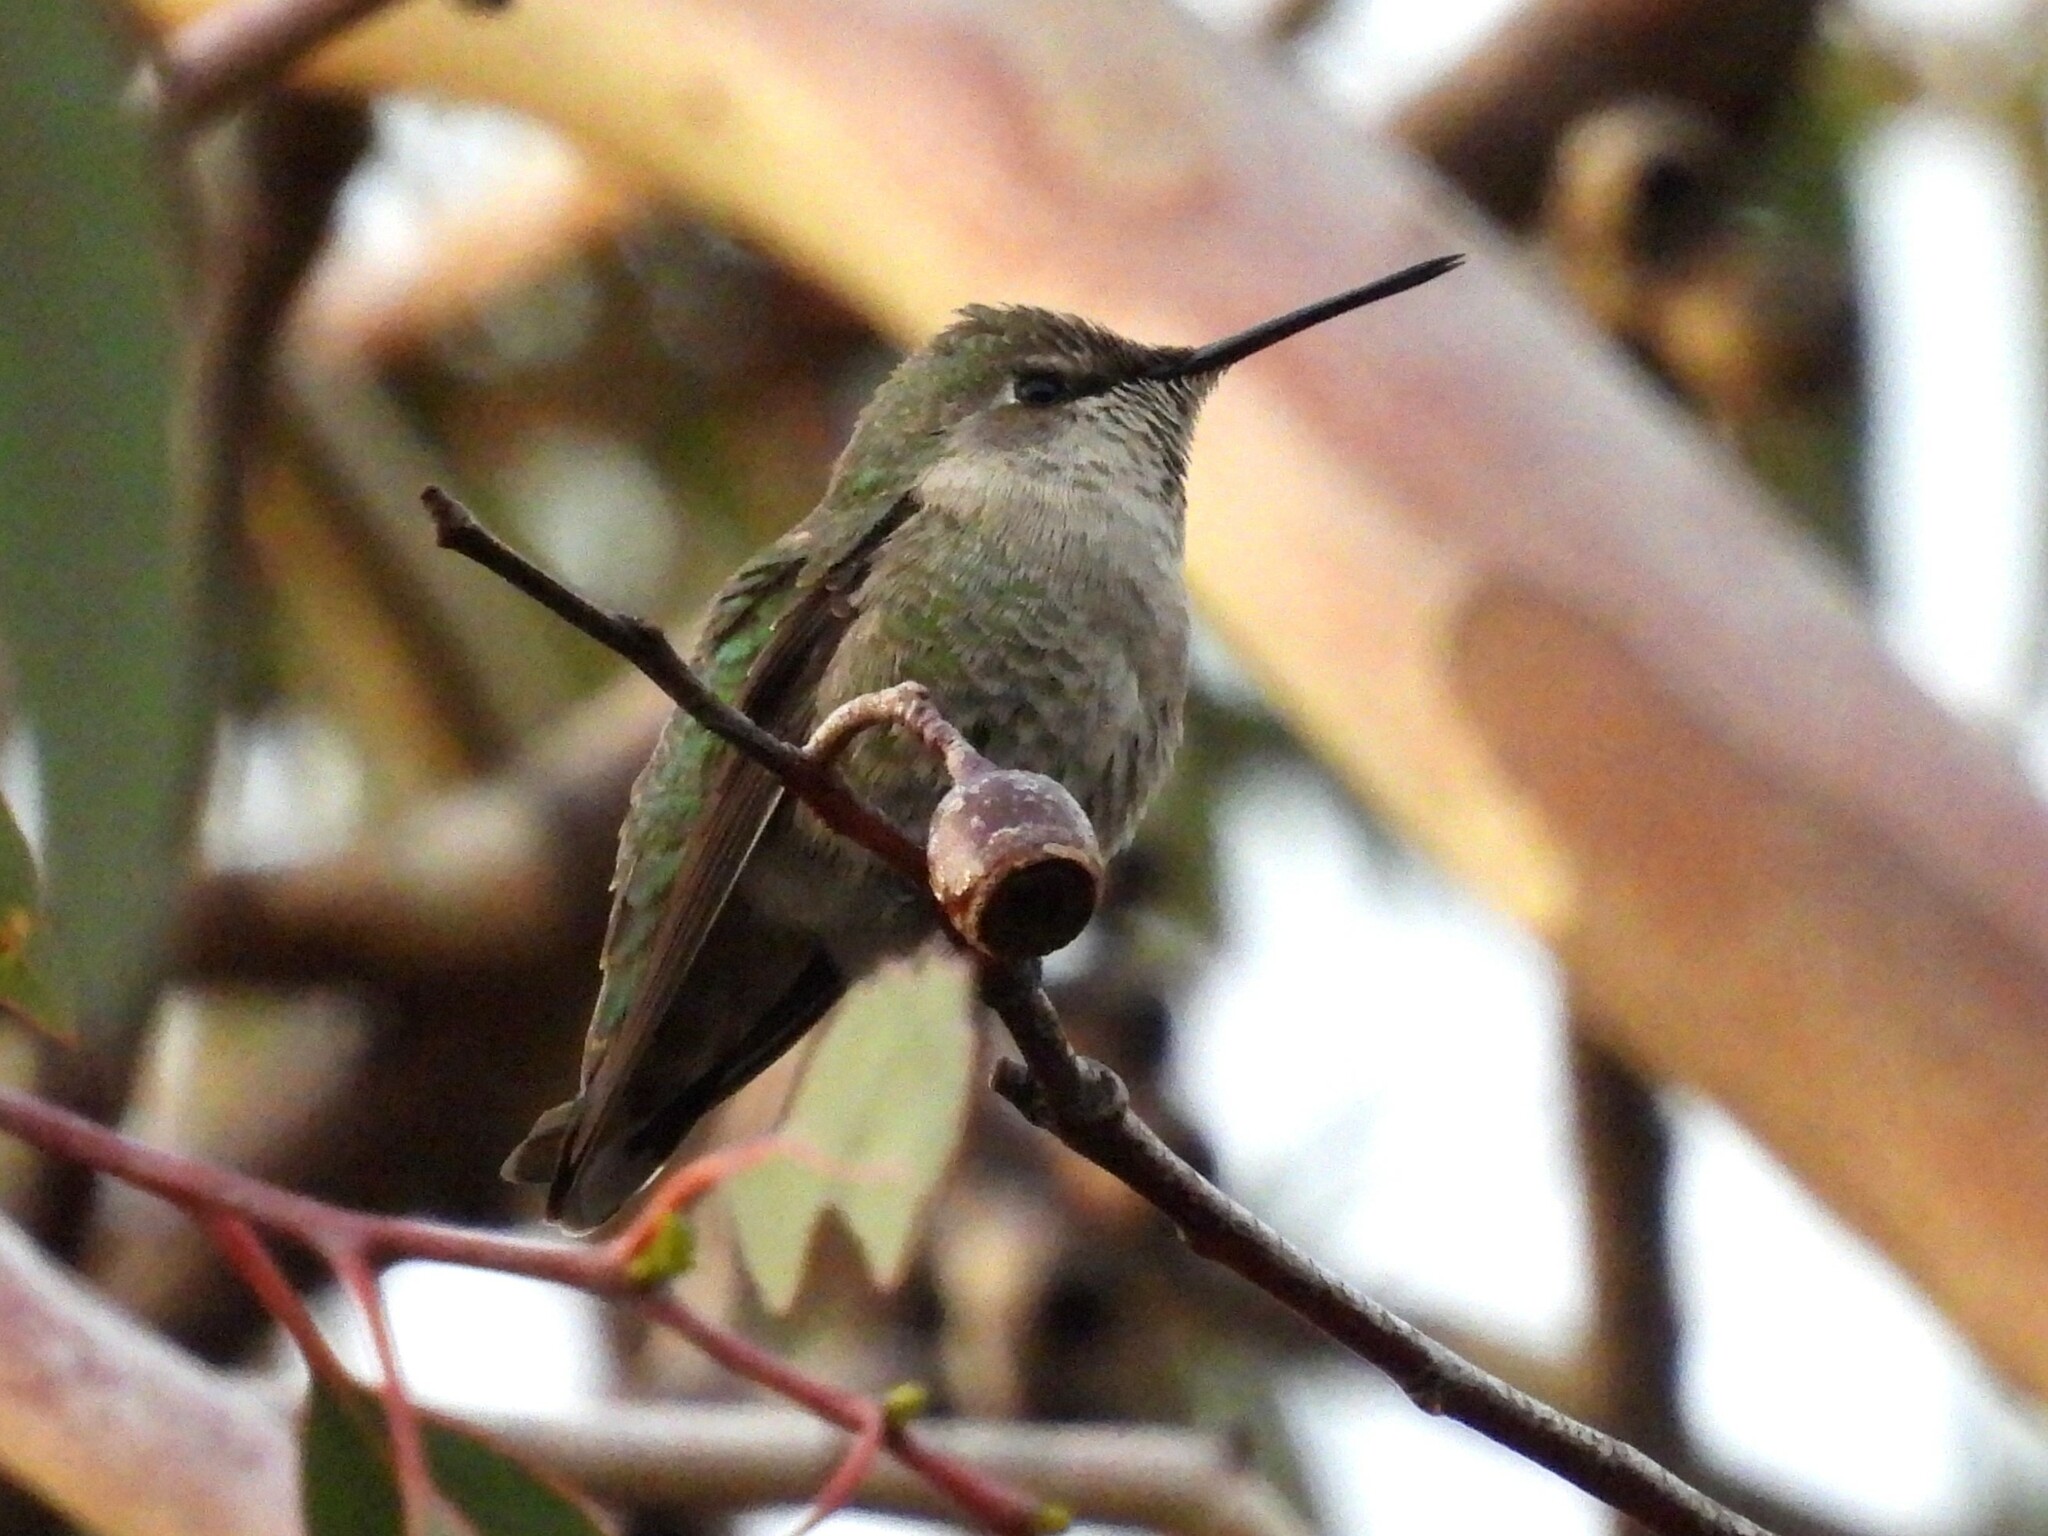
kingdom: Animalia
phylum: Chordata
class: Aves
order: Apodiformes
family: Trochilidae
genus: Calypte
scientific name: Calypte anna
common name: Anna's hummingbird
